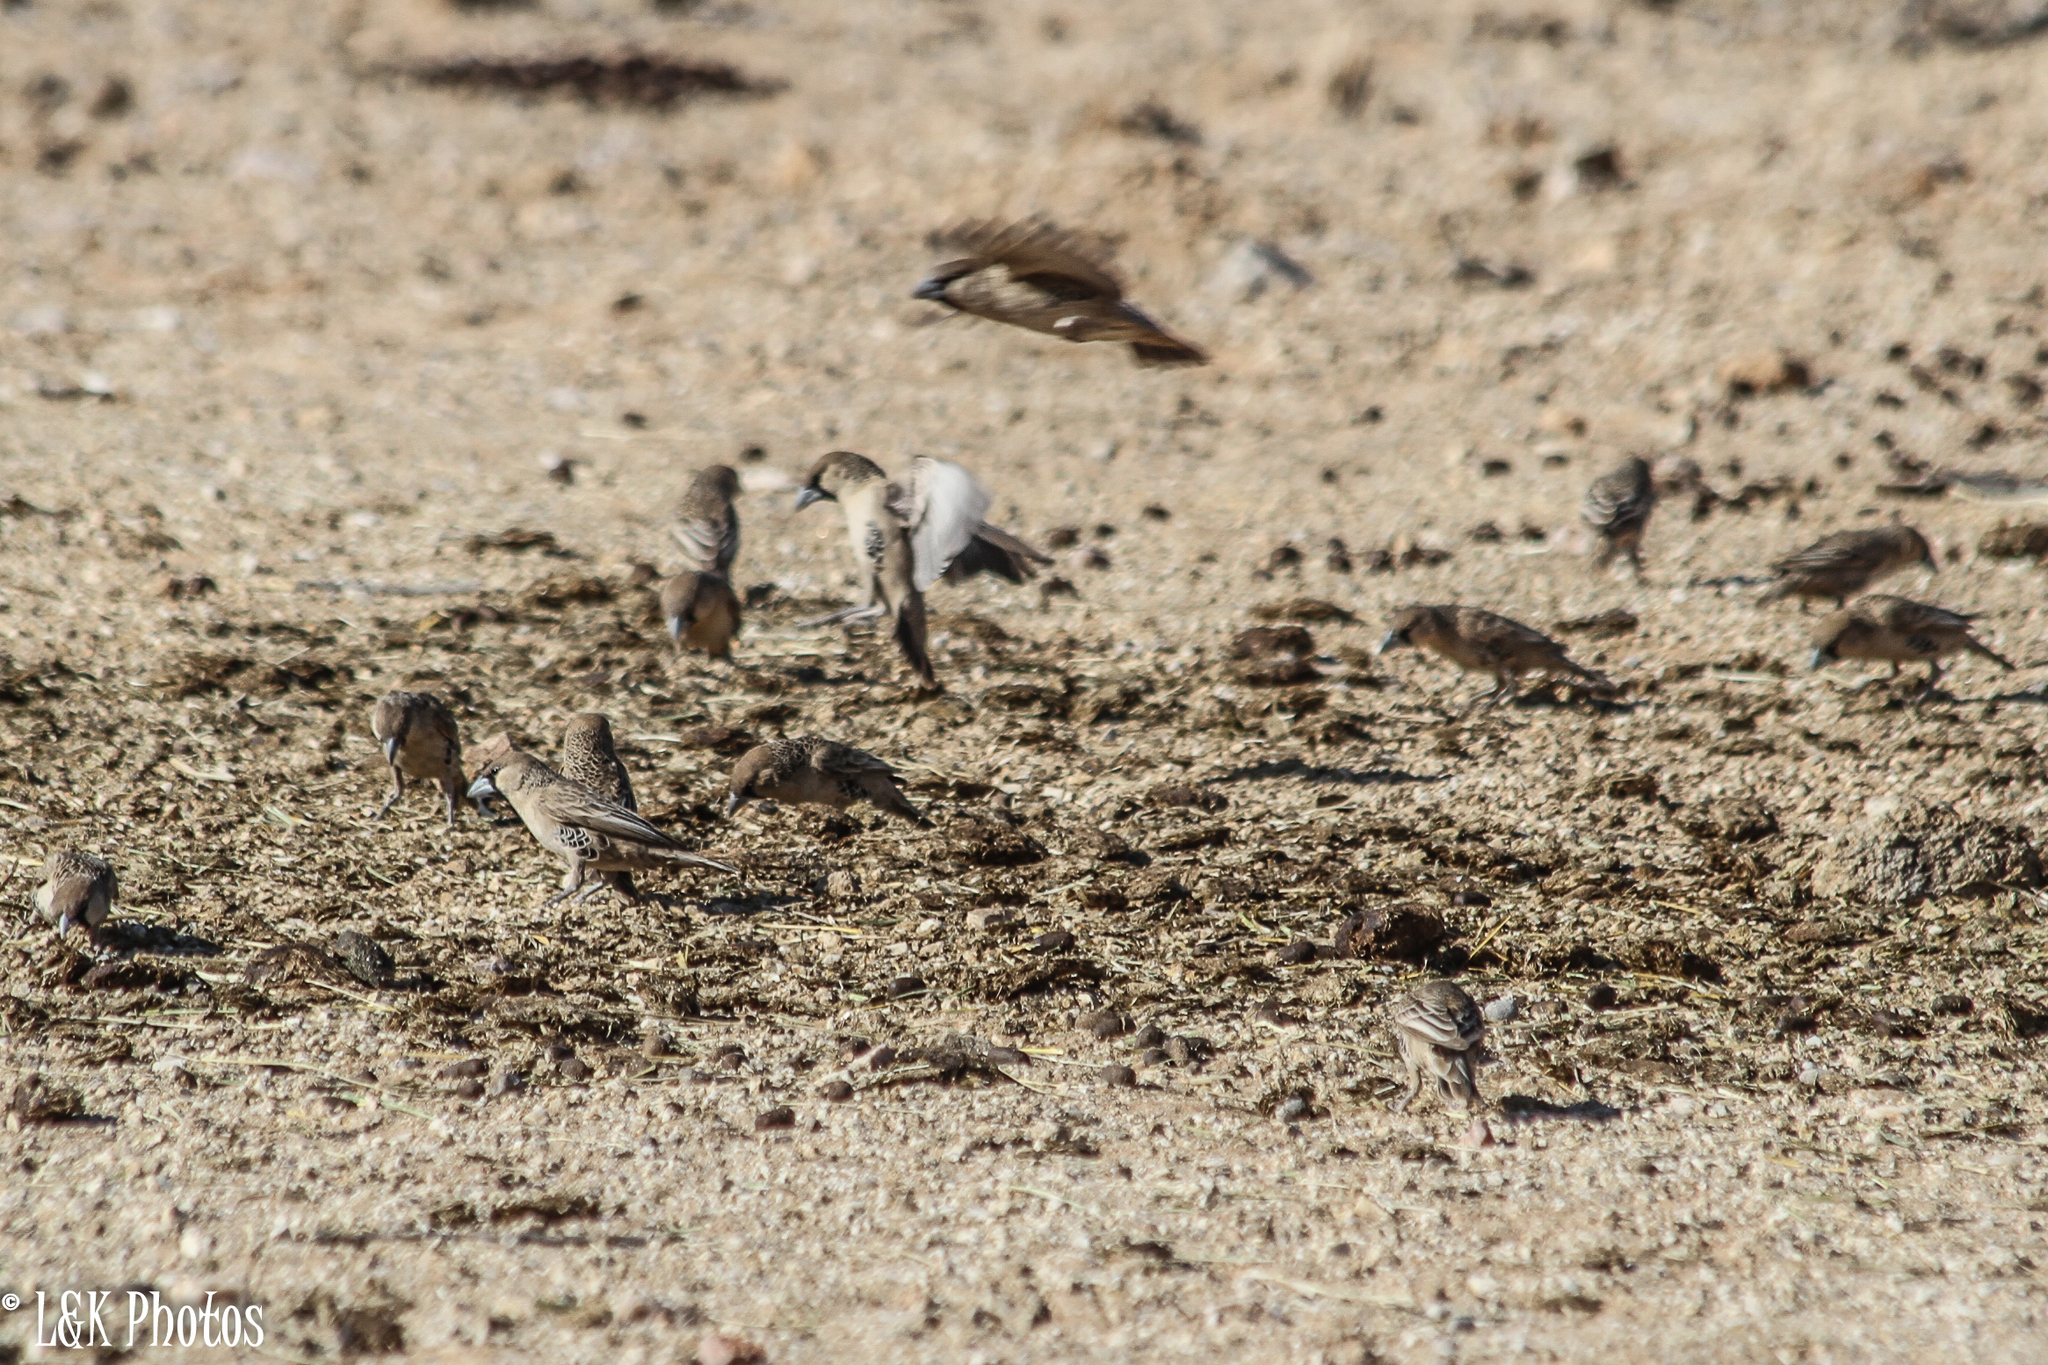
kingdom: Animalia
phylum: Chordata
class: Aves
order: Passeriformes
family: Passeridae
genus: Philetairus
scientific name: Philetairus socius
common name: Sociable weaver
